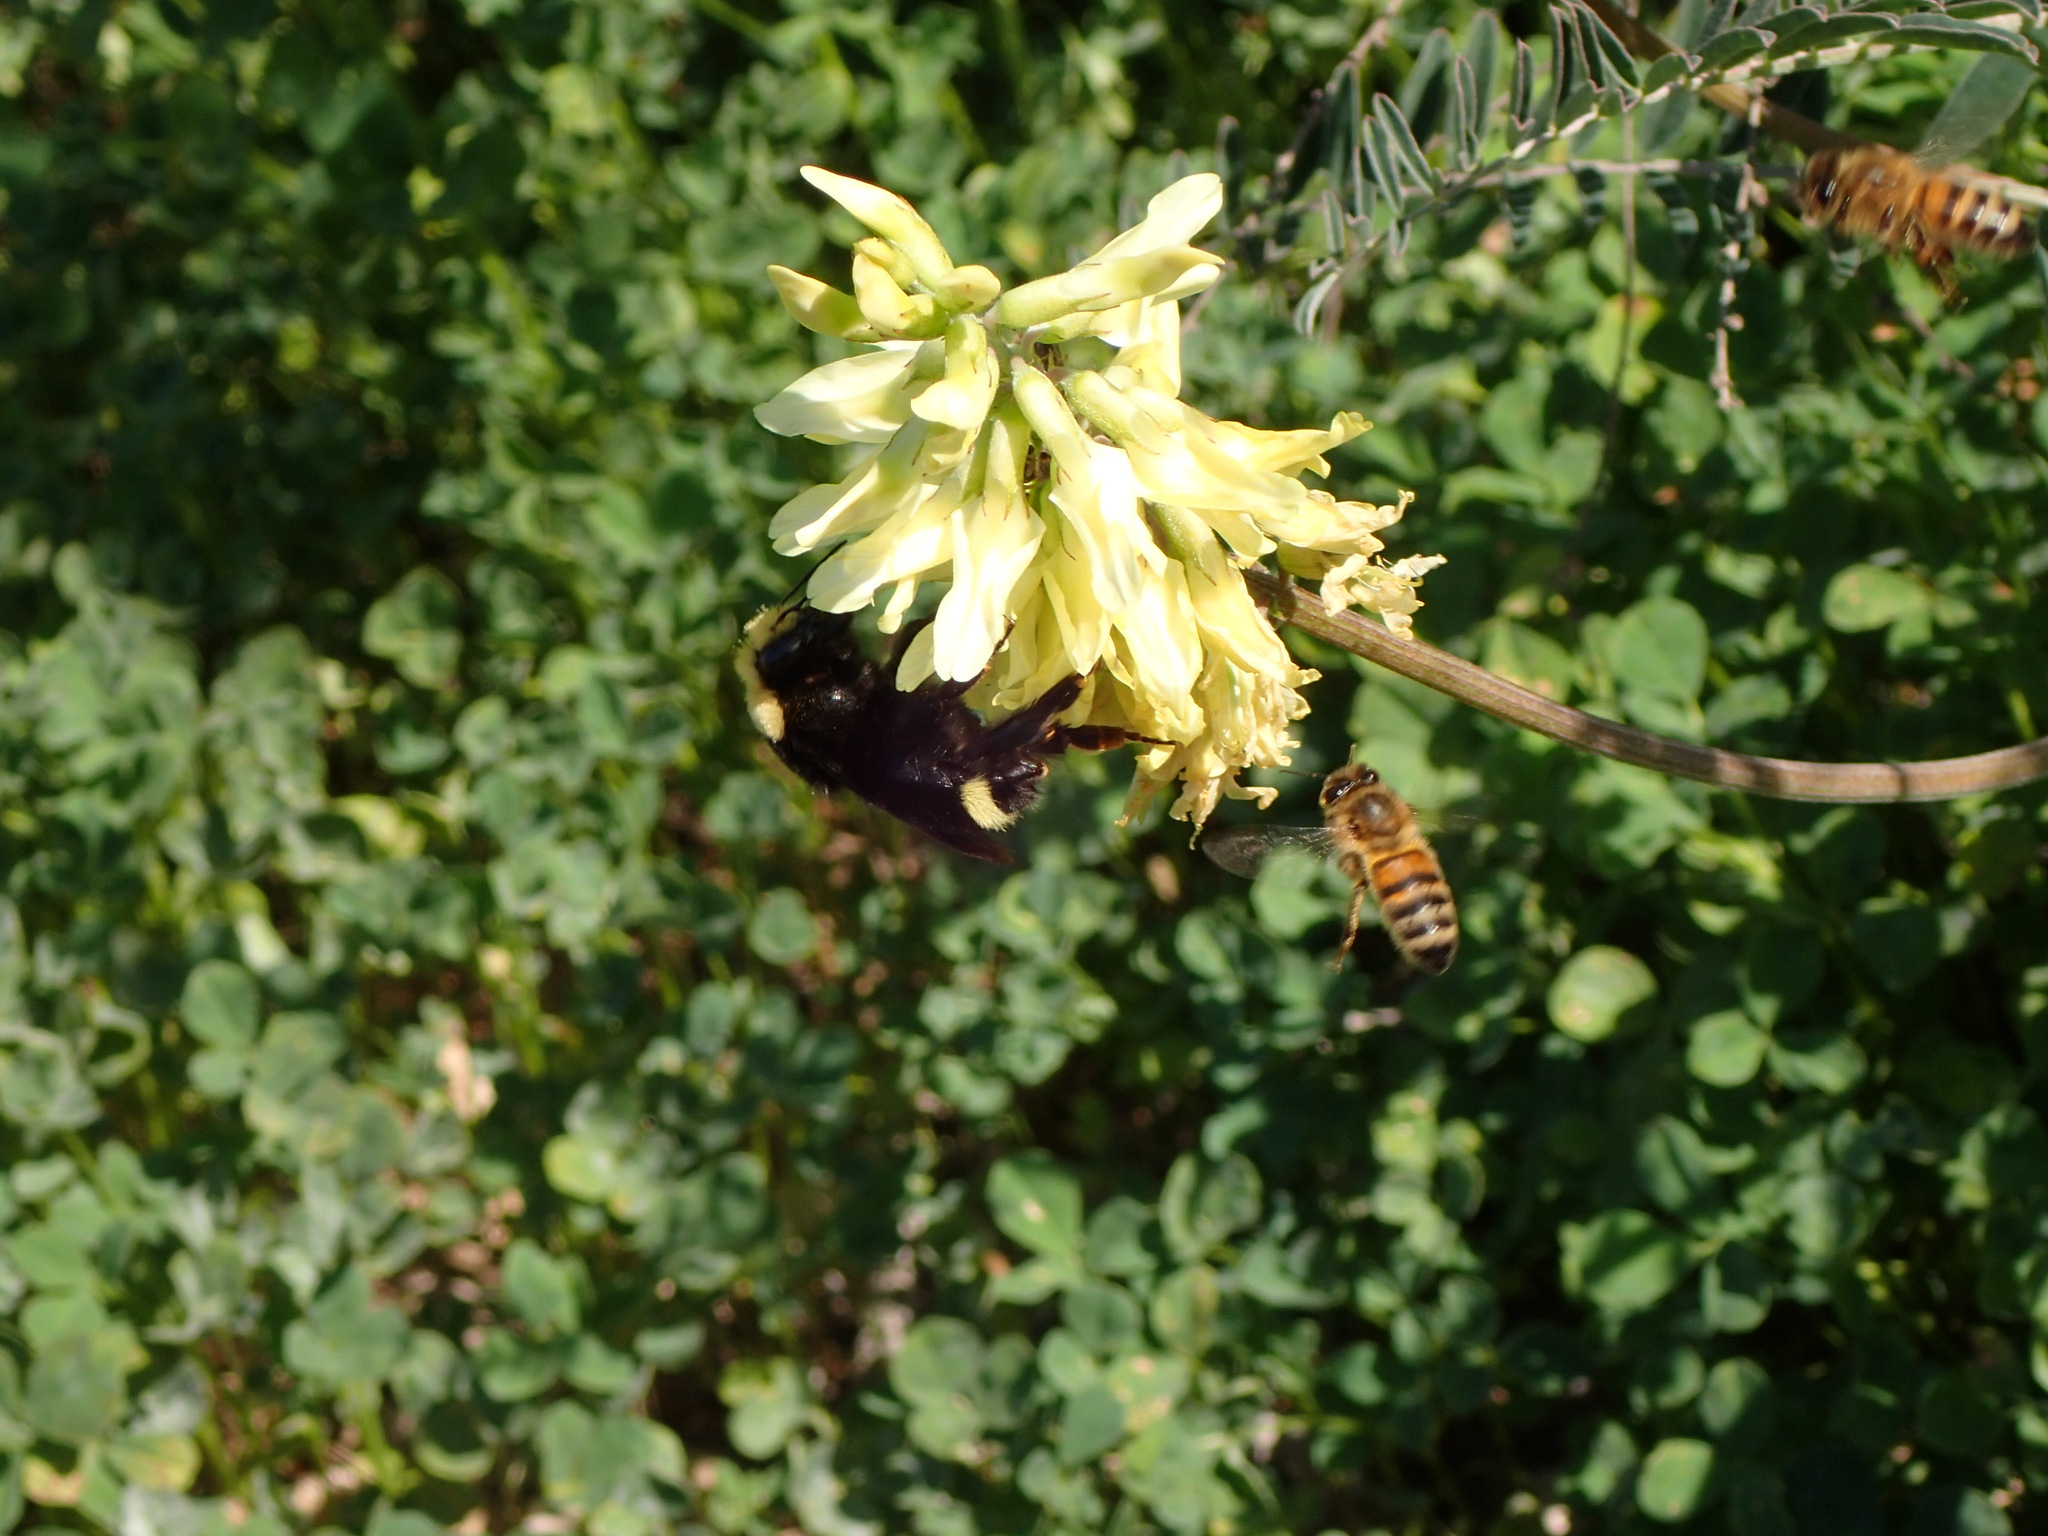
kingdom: Animalia
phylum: Arthropoda
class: Insecta
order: Hymenoptera
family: Apidae
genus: Apis
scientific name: Apis mellifera
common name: Honey bee
